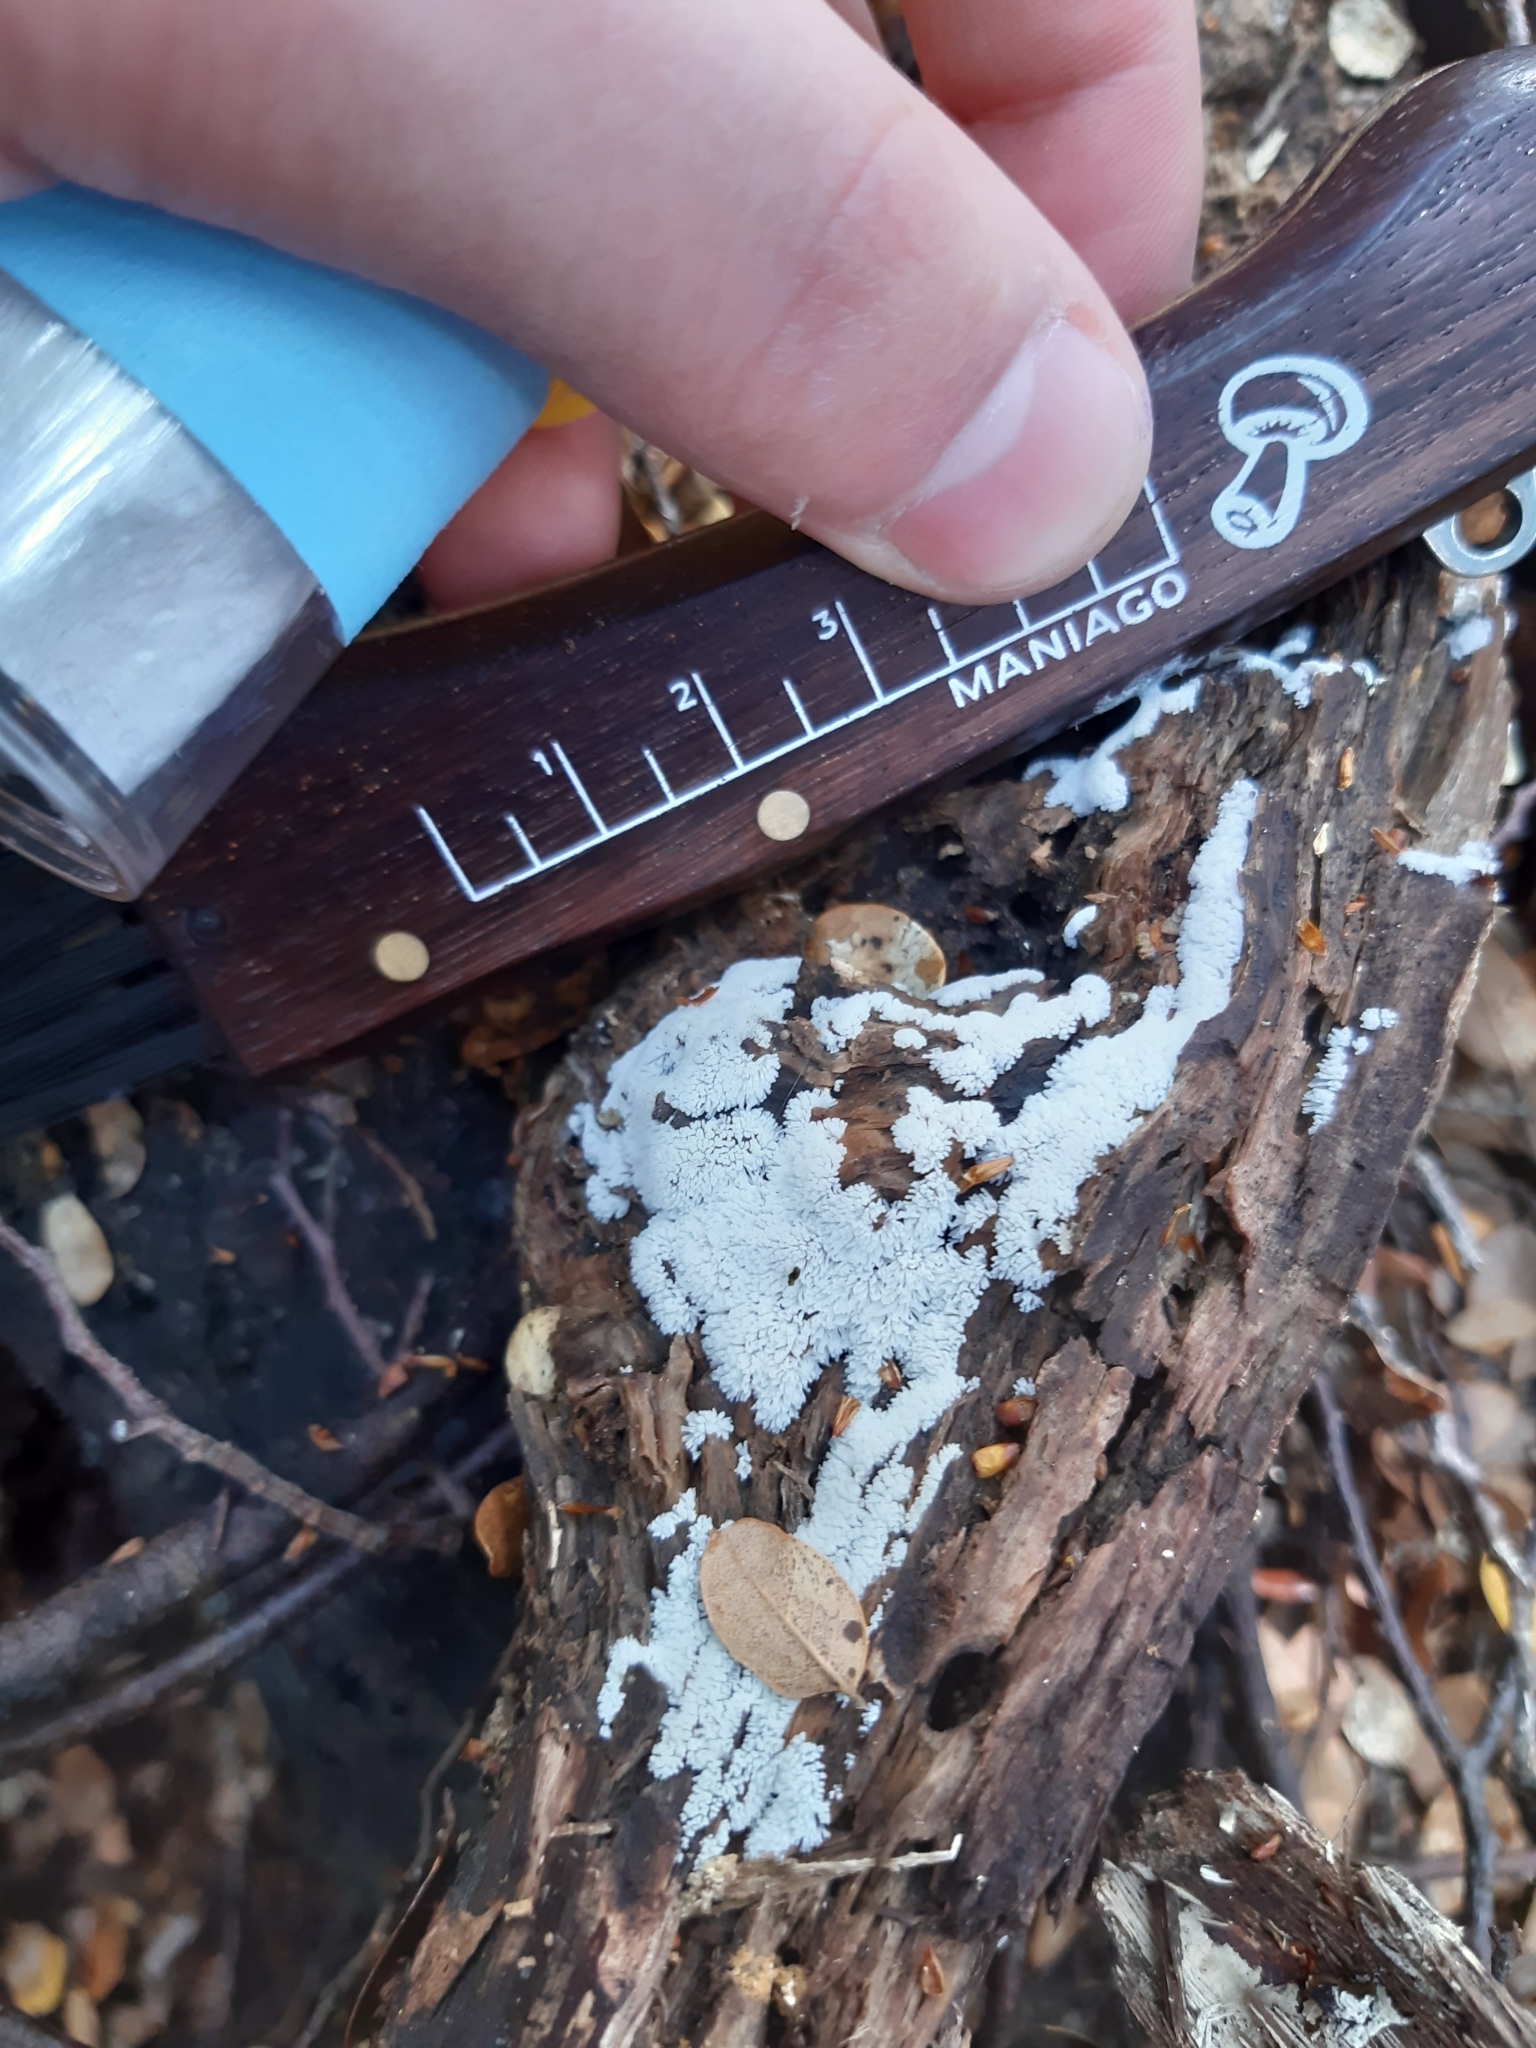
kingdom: Protozoa
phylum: Mycetozoa
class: Protosteliomycetes
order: Ceratiomyxales
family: Ceratiomyxaceae
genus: Ceratiomyxa
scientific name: Ceratiomyxa fruticulosa
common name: Honeycomb coral slime mold
